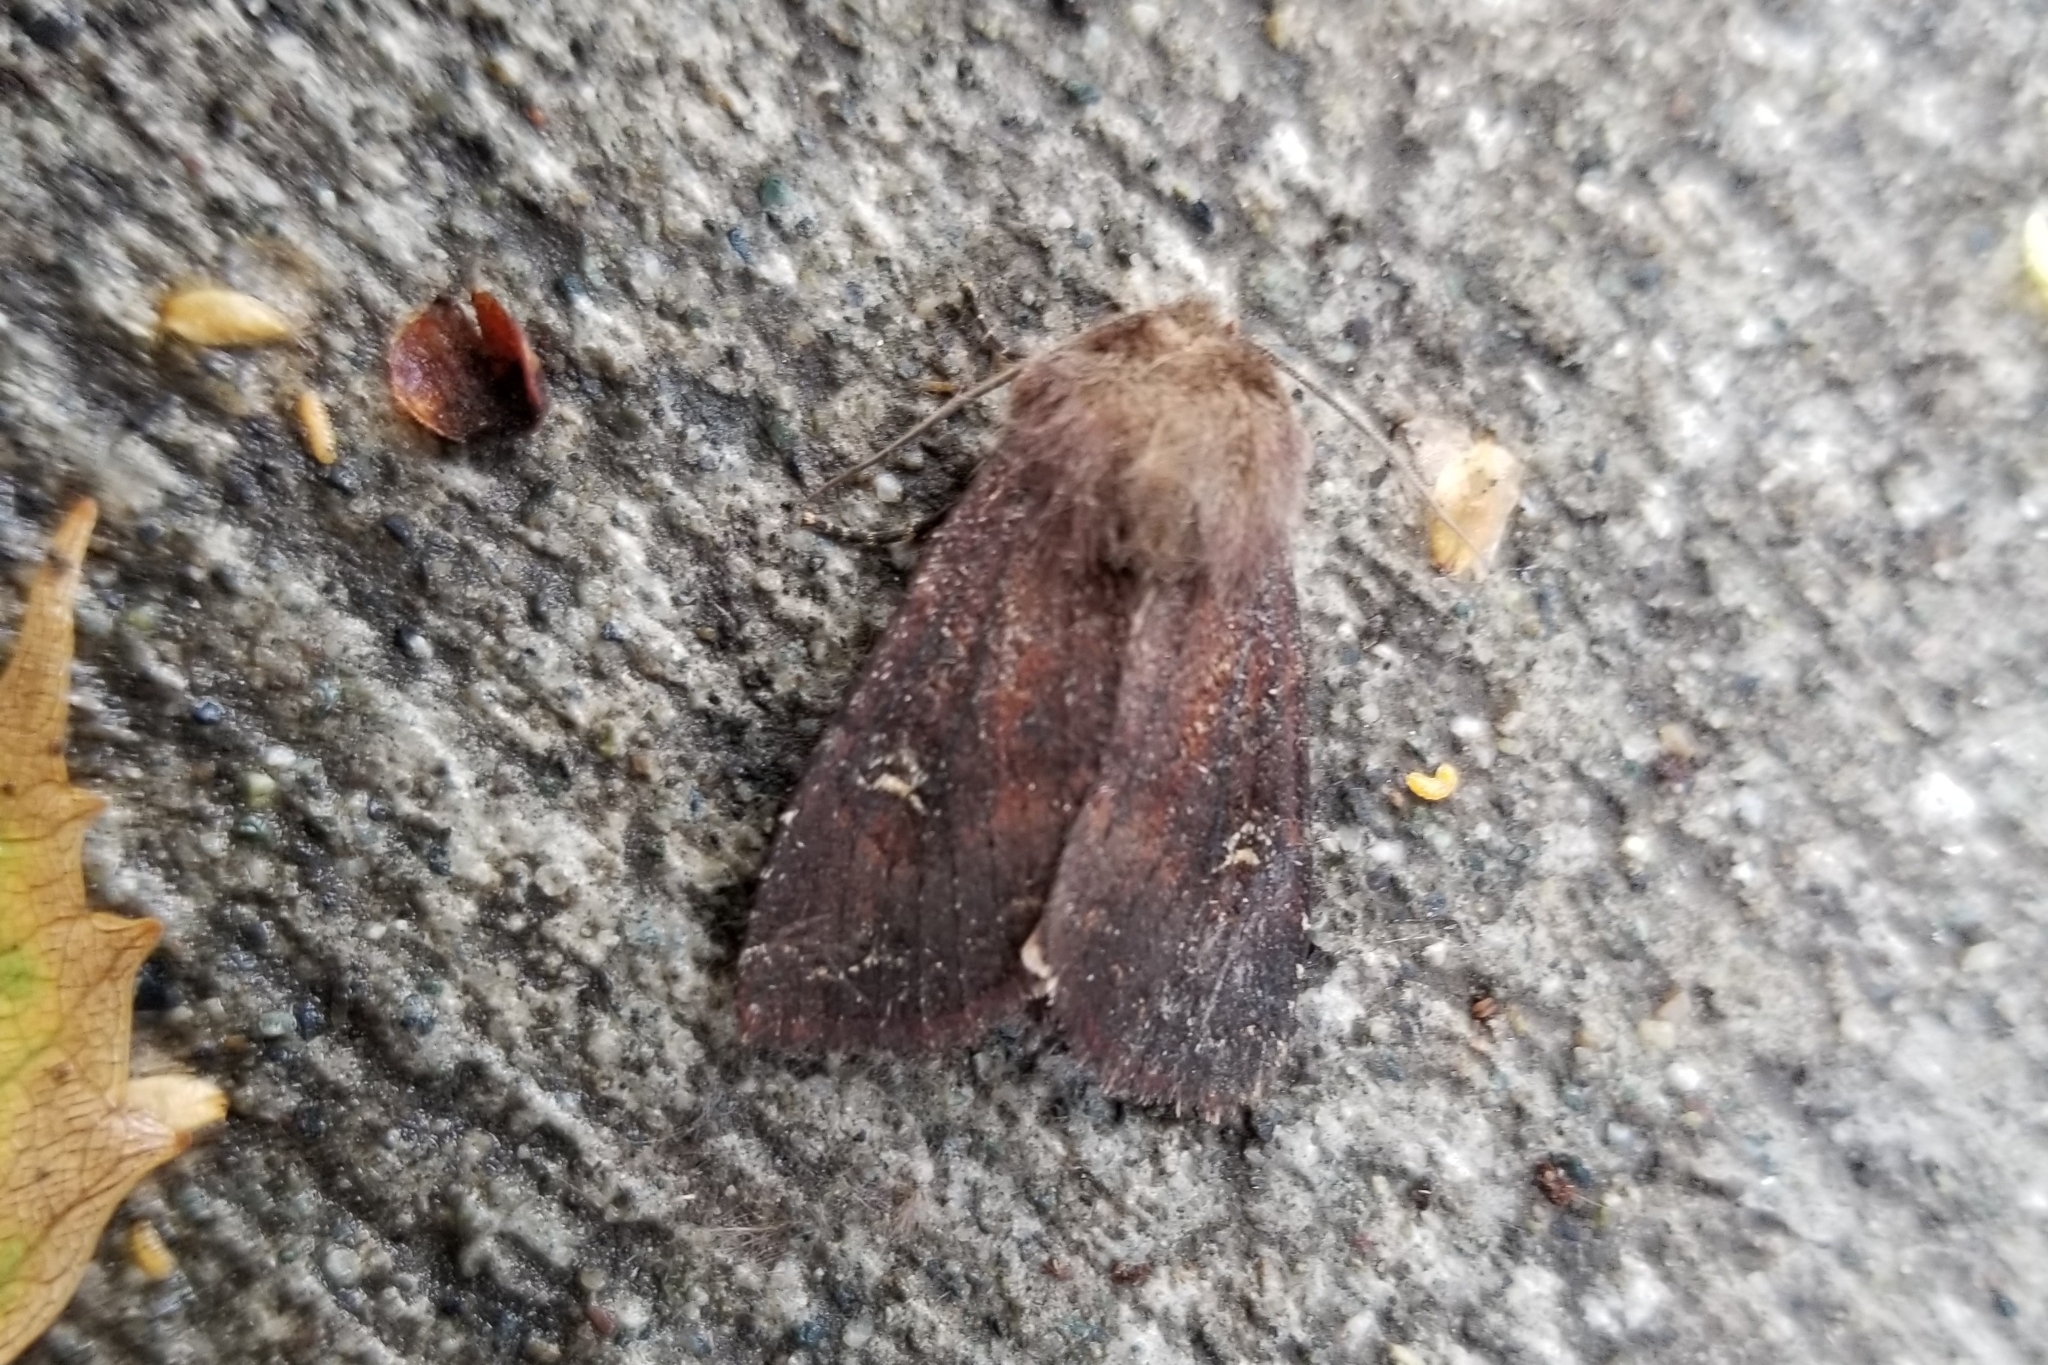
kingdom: Animalia
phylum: Arthropoda
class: Insecta
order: Lepidoptera
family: Noctuidae
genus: Apamea
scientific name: Apamea cogitata
